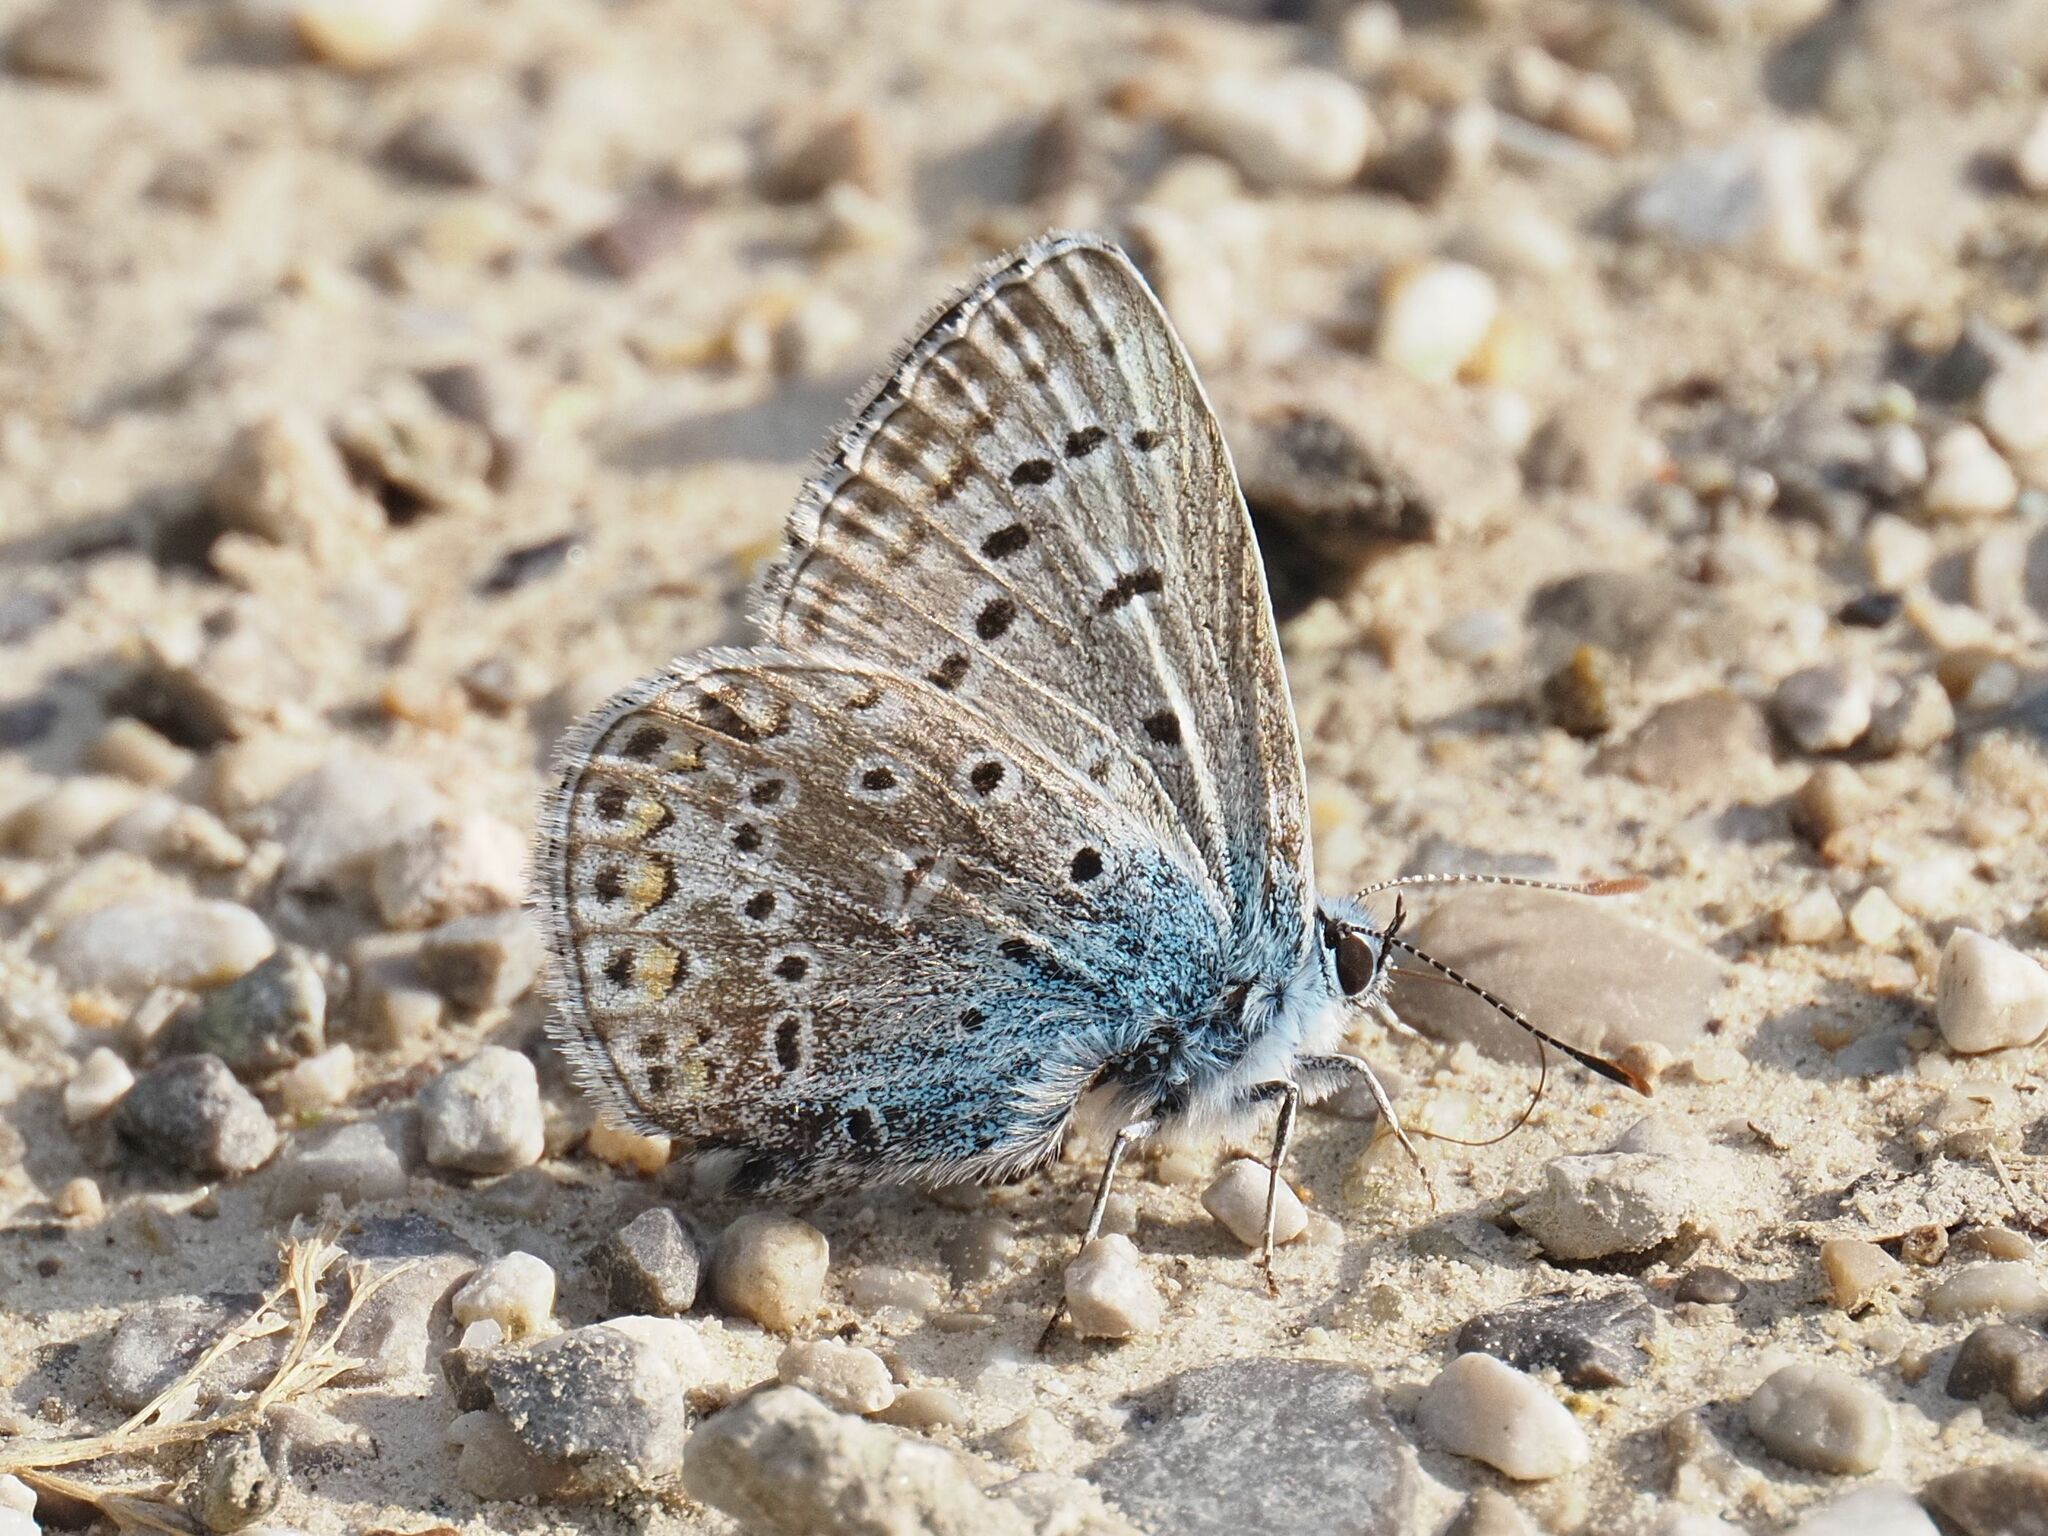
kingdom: Animalia
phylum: Arthropoda
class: Insecta
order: Lepidoptera
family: Lycaenidae
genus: Polyommatus
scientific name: Polyommatus icarus
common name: Common blue
